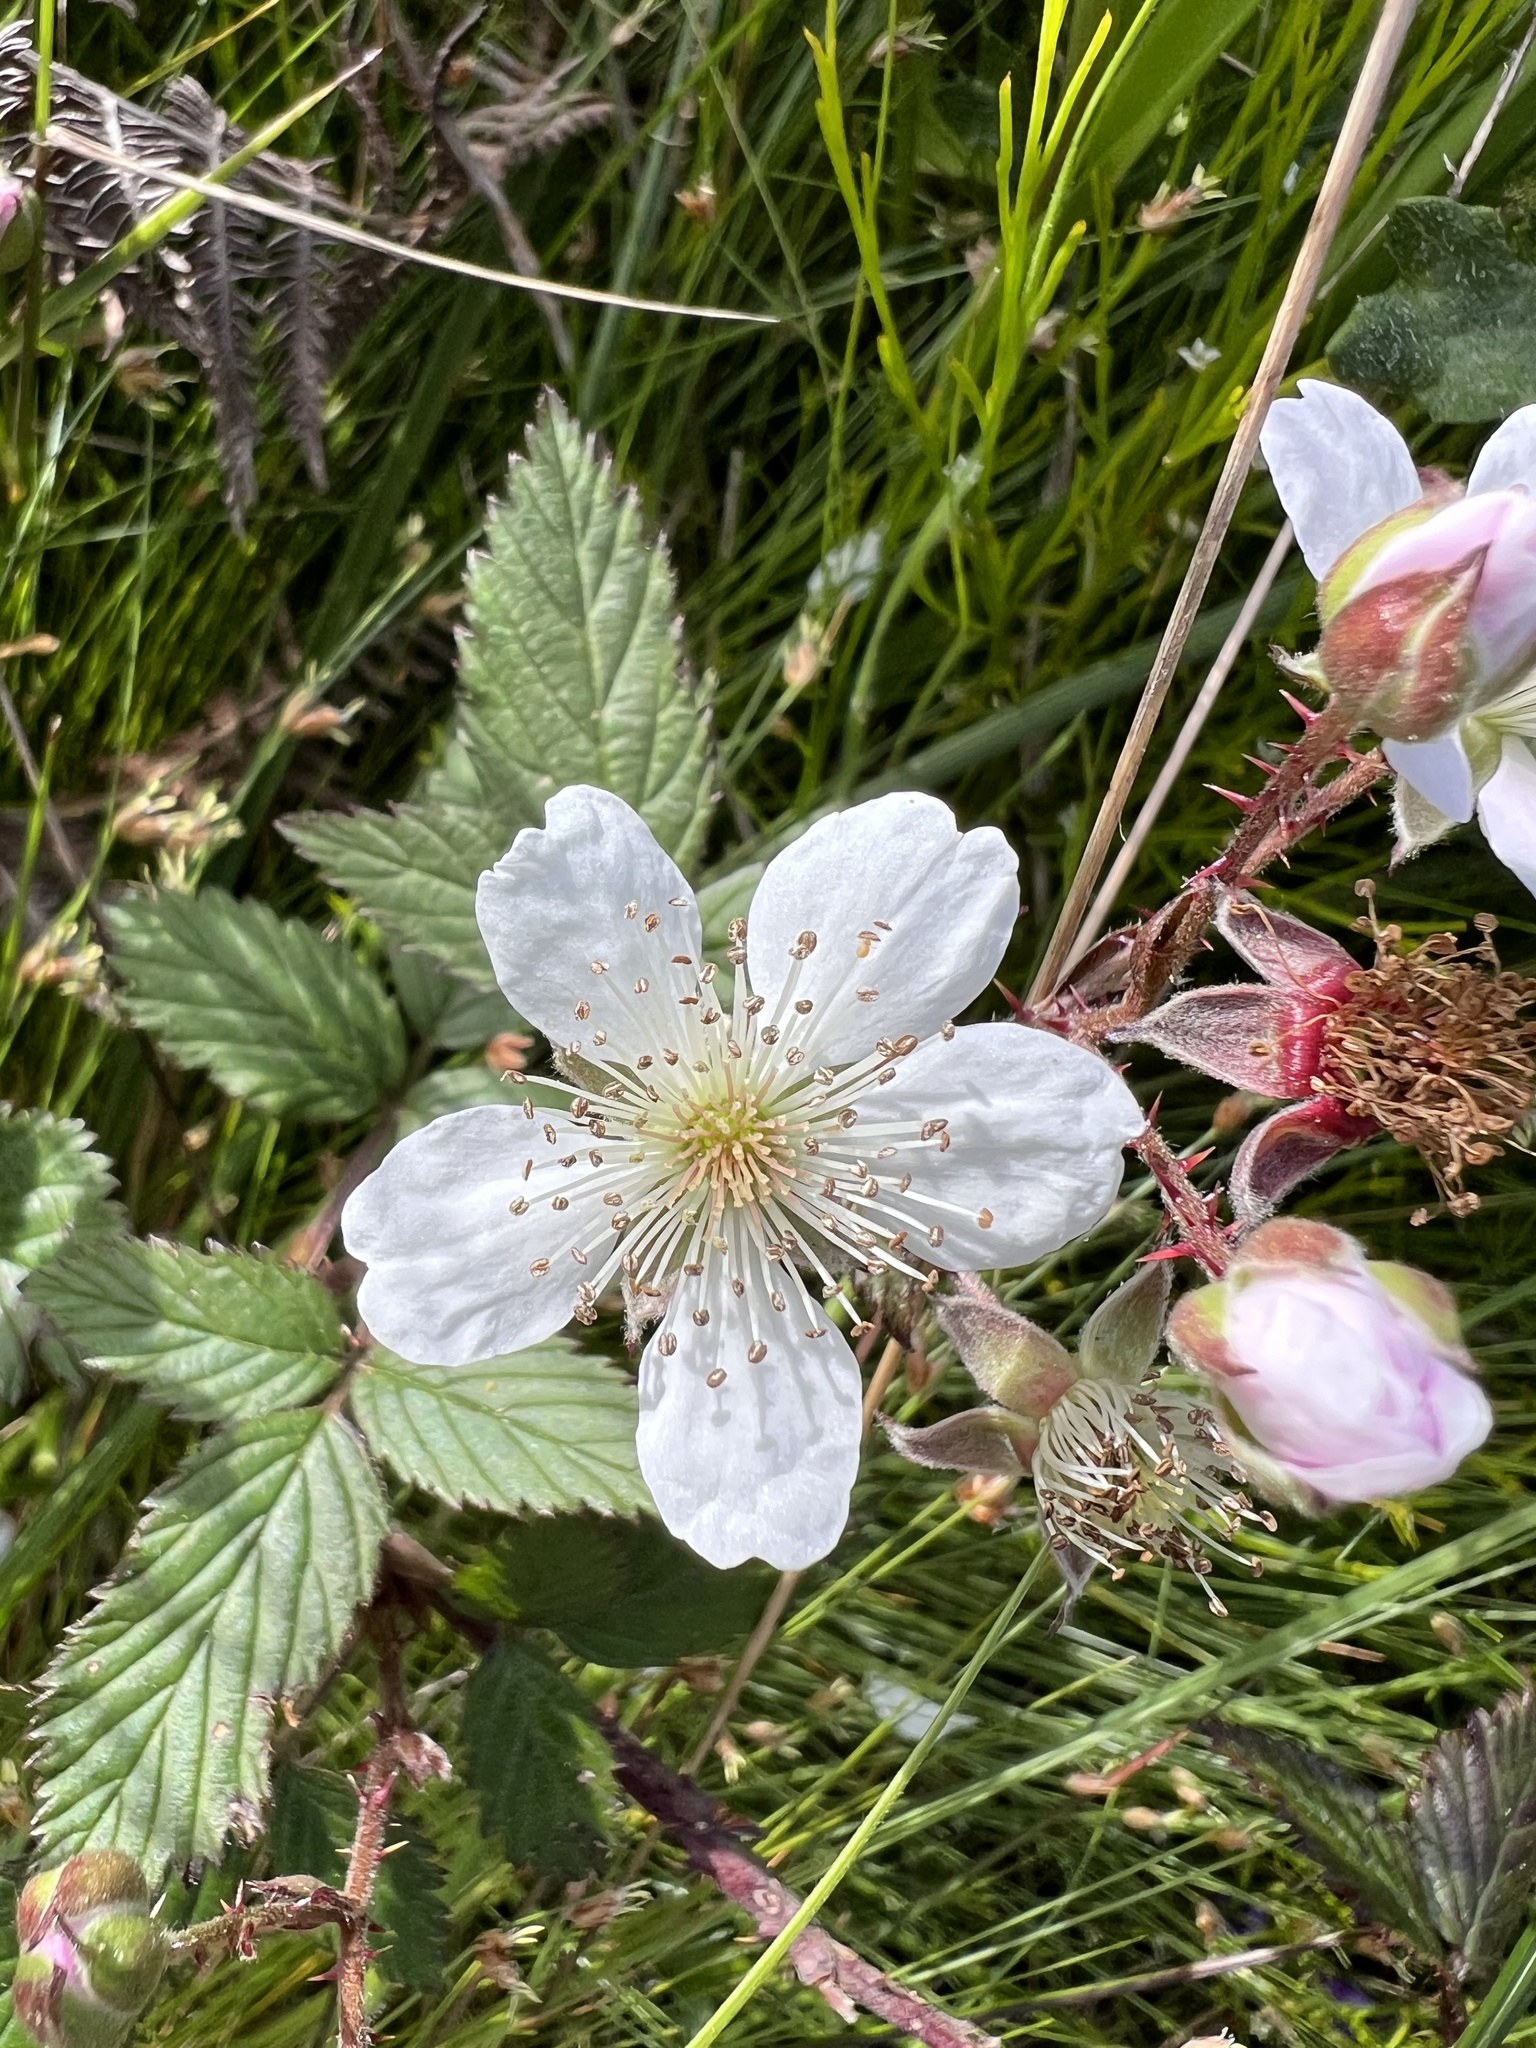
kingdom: Plantae
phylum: Tracheophyta
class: Magnoliopsida
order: Rosales
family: Rosaceae
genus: Rubus
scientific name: Rubus affinis
